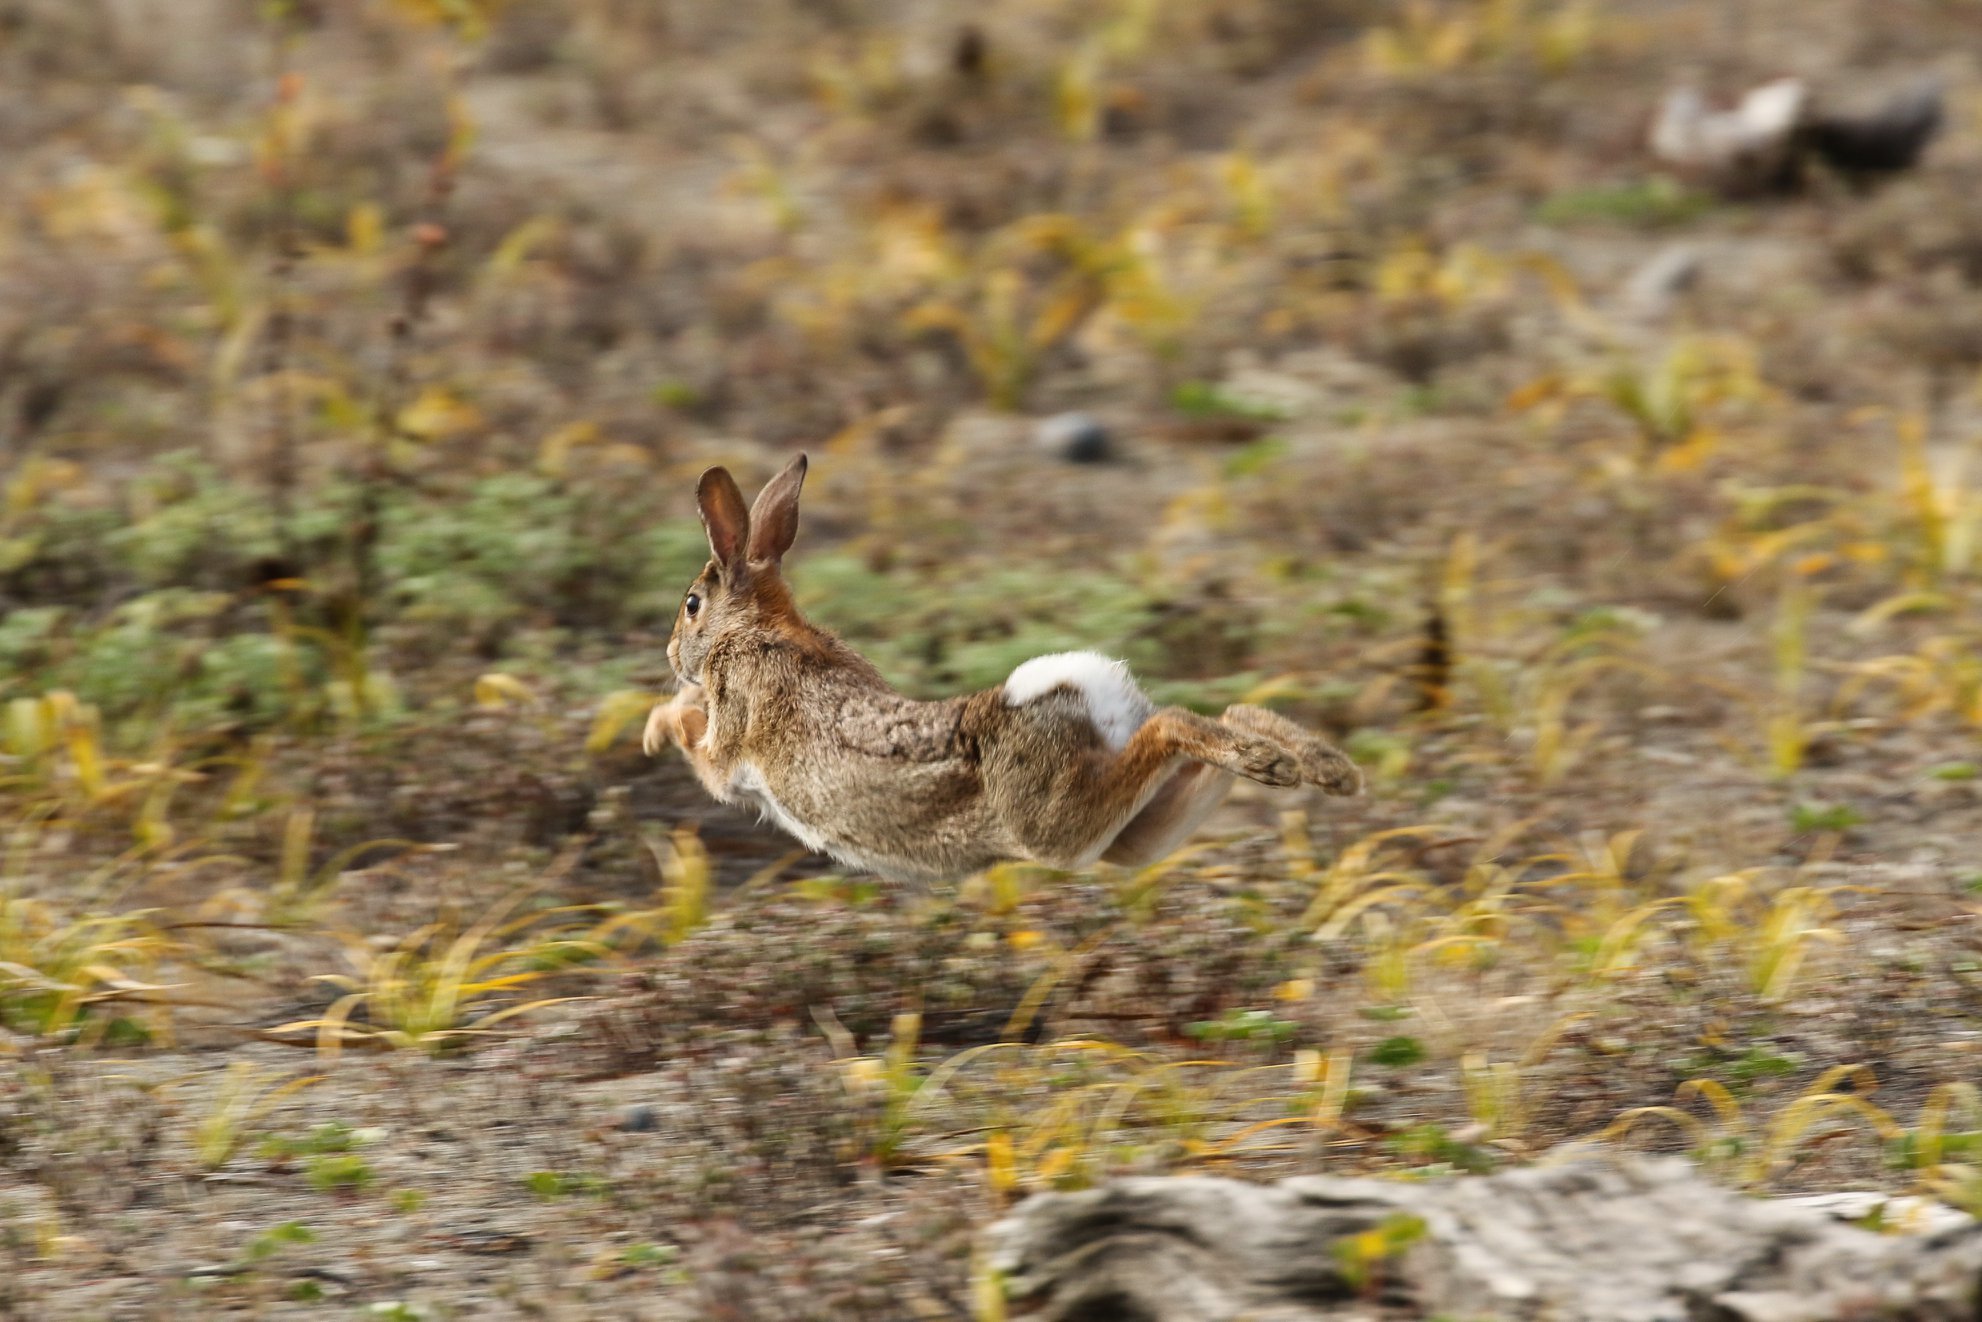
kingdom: Animalia
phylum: Chordata
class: Mammalia
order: Lagomorpha
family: Leporidae
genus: Sylvilagus
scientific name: Sylvilagus floridanus
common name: Eastern cottontail
